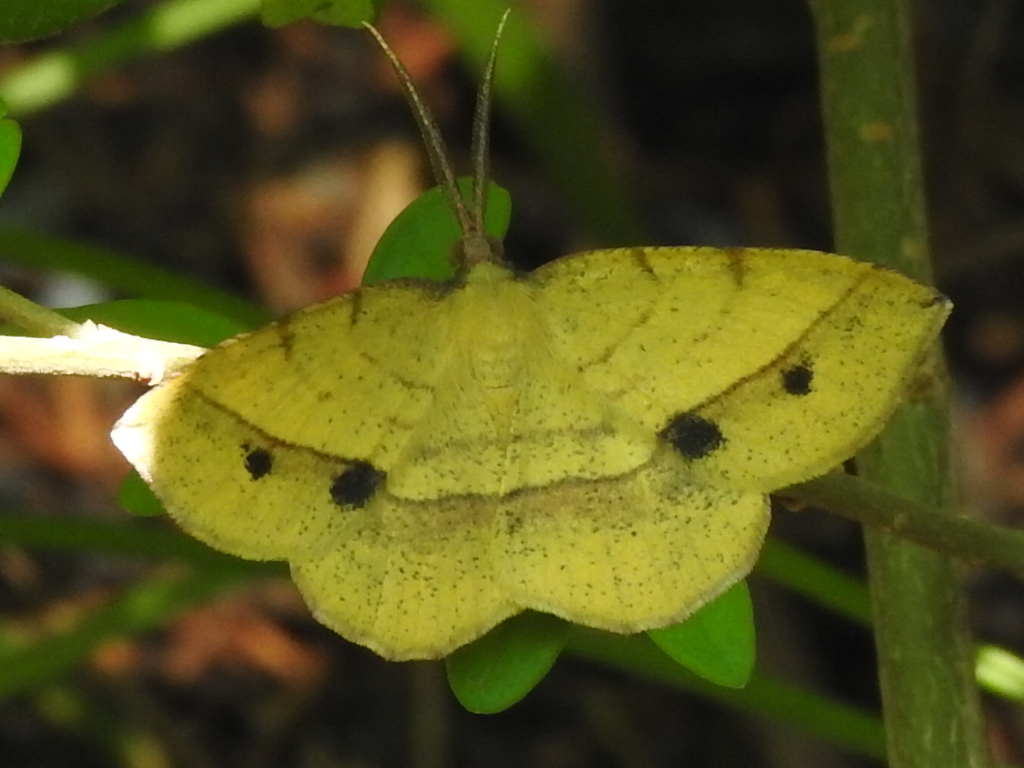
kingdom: Animalia
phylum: Arthropoda
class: Insecta
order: Lepidoptera
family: Geometridae
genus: Erastria
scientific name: Erastria cruentaria
